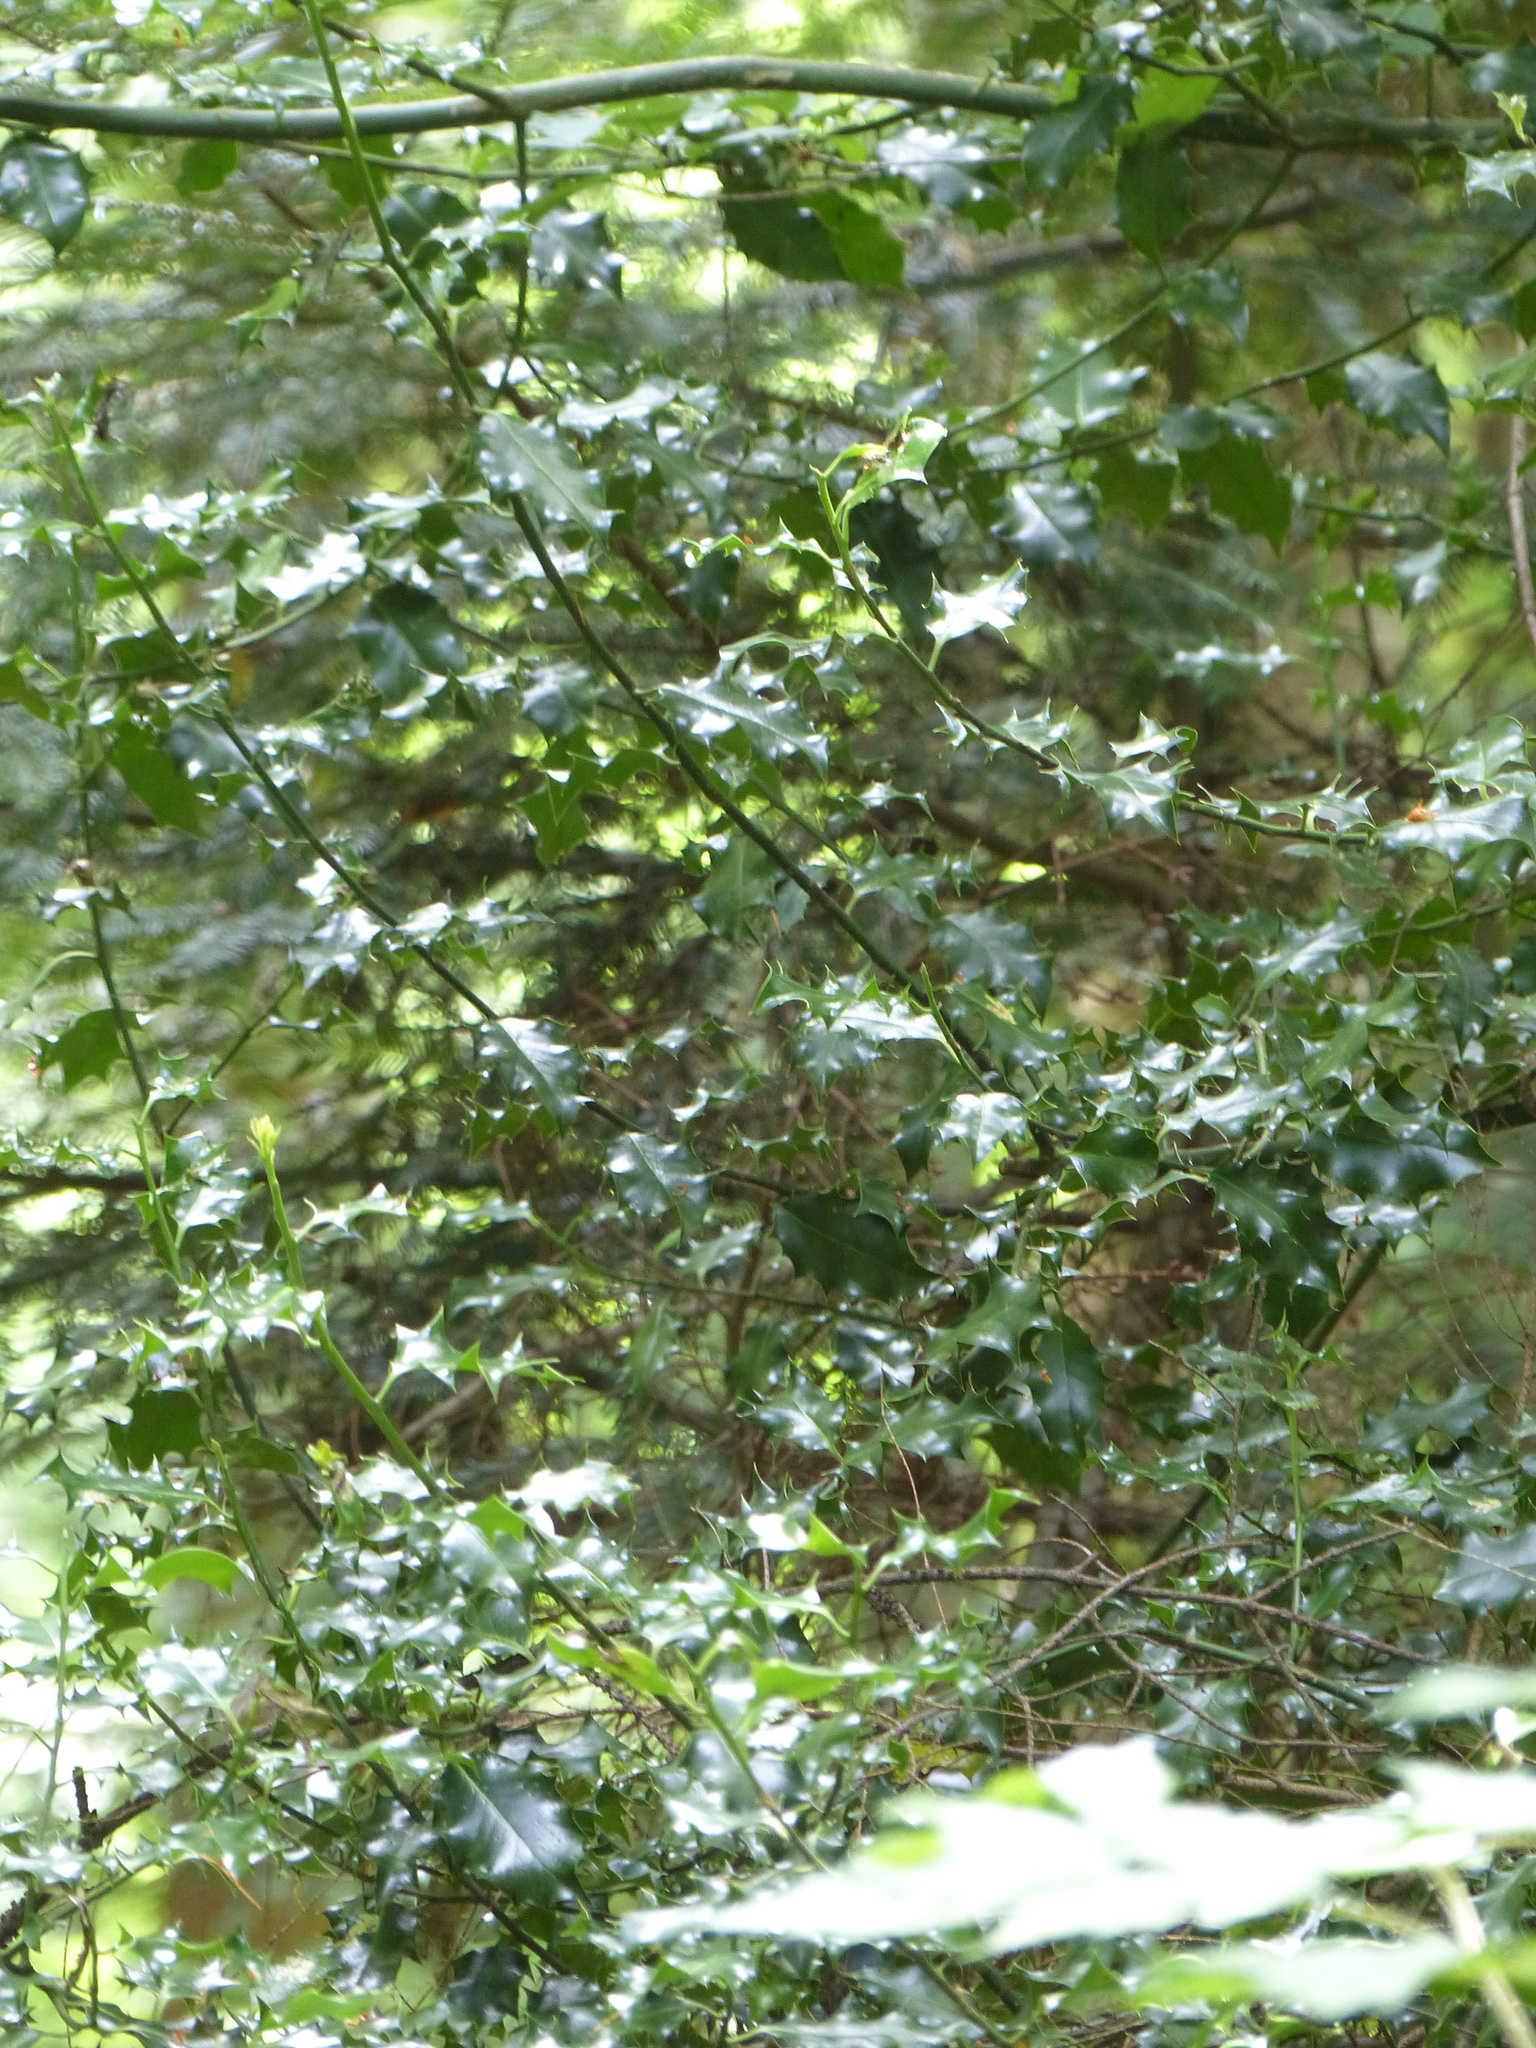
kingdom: Plantae
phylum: Tracheophyta
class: Magnoliopsida
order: Aquifoliales
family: Aquifoliaceae
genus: Ilex
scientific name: Ilex aquifolium
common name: English holly
